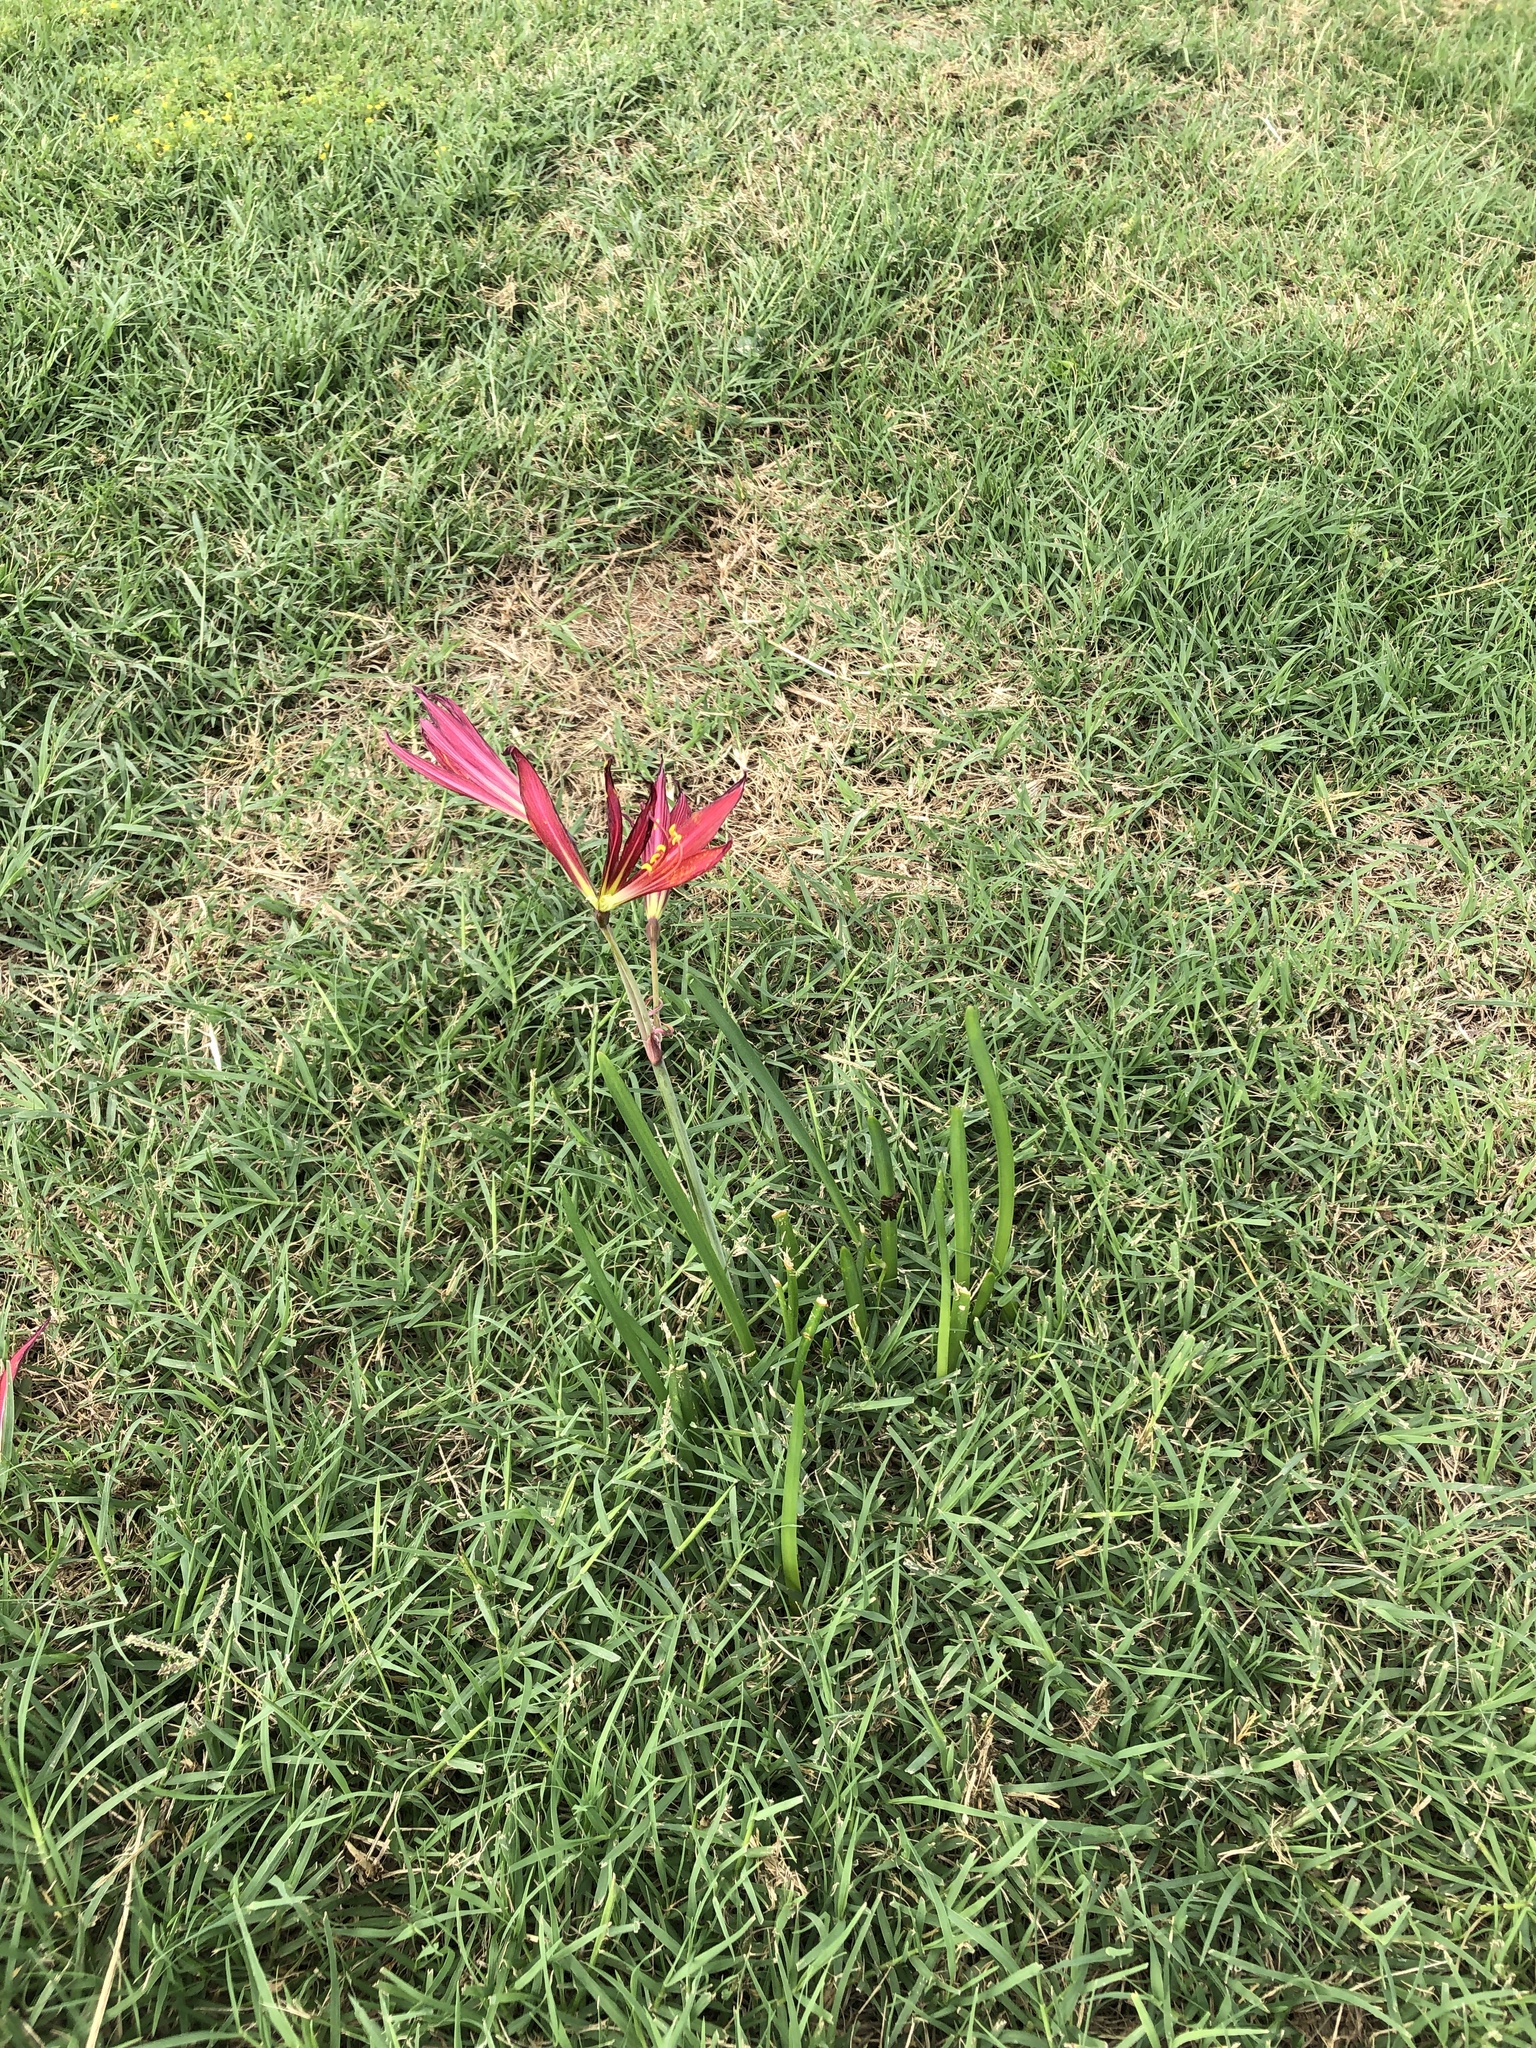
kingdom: Plantae
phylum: Tracheophyta
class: Liliopsida
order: Asparagales
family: Amaryllidaceae
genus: Zephyranthes
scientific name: Zephyranthes bifida
